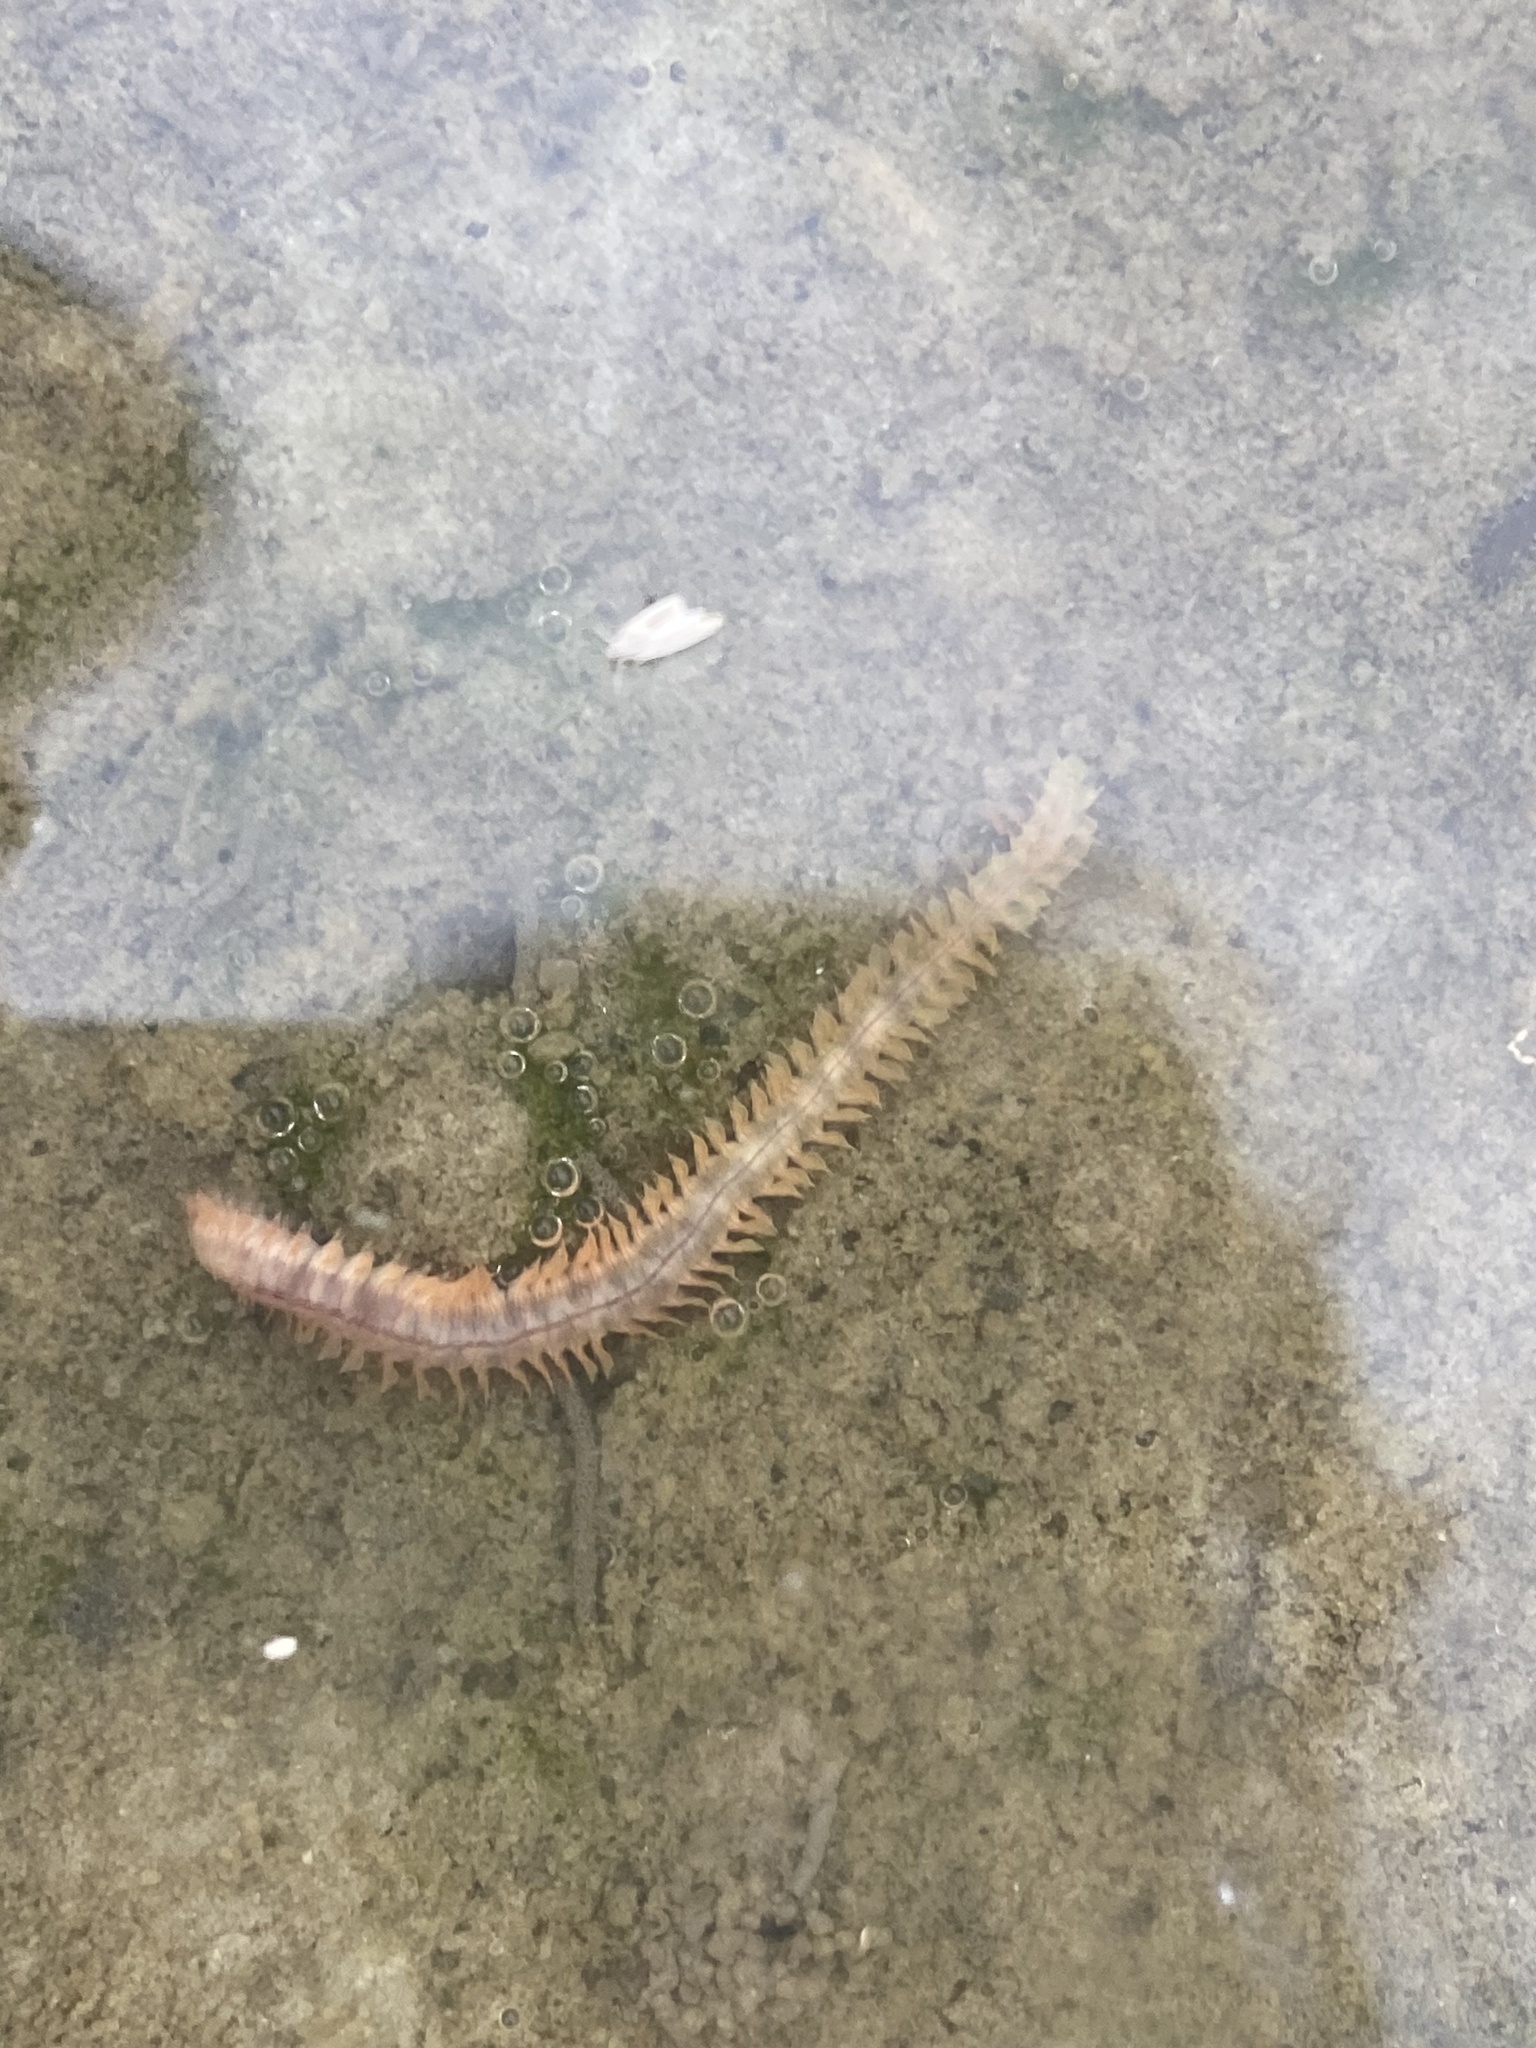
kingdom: Animalia
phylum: Annelida
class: Polychaeta
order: Phyllodocida
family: Nereididae
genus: Alitta
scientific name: Alitta succinea
